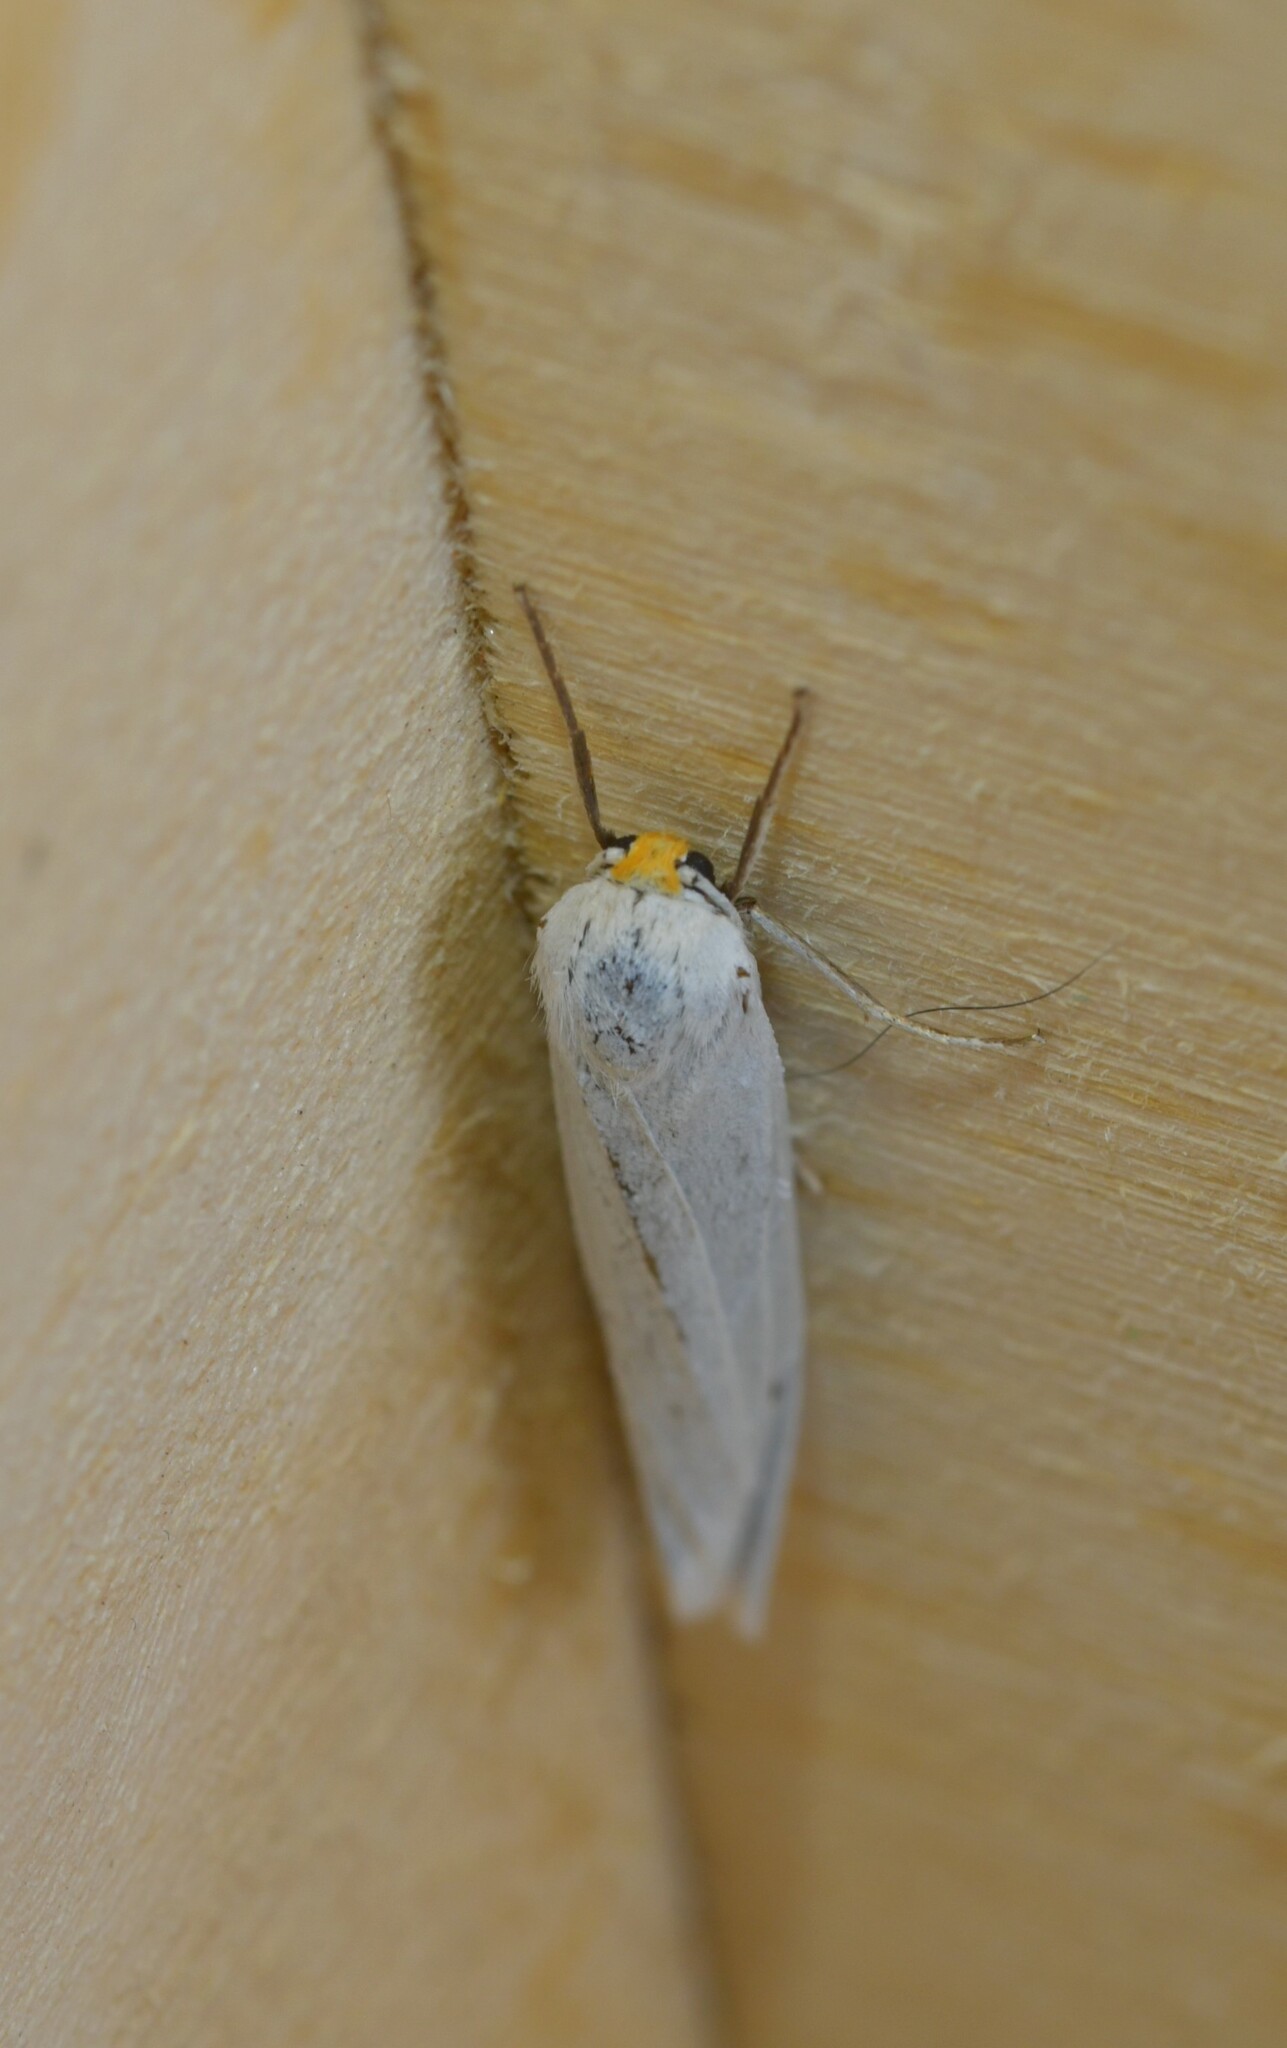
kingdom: Animalia
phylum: Arthropoda
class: Insecta
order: Lepidoptera
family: Erebidae
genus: Coscinia
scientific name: Coscinia cribraria
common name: Speckled footman
